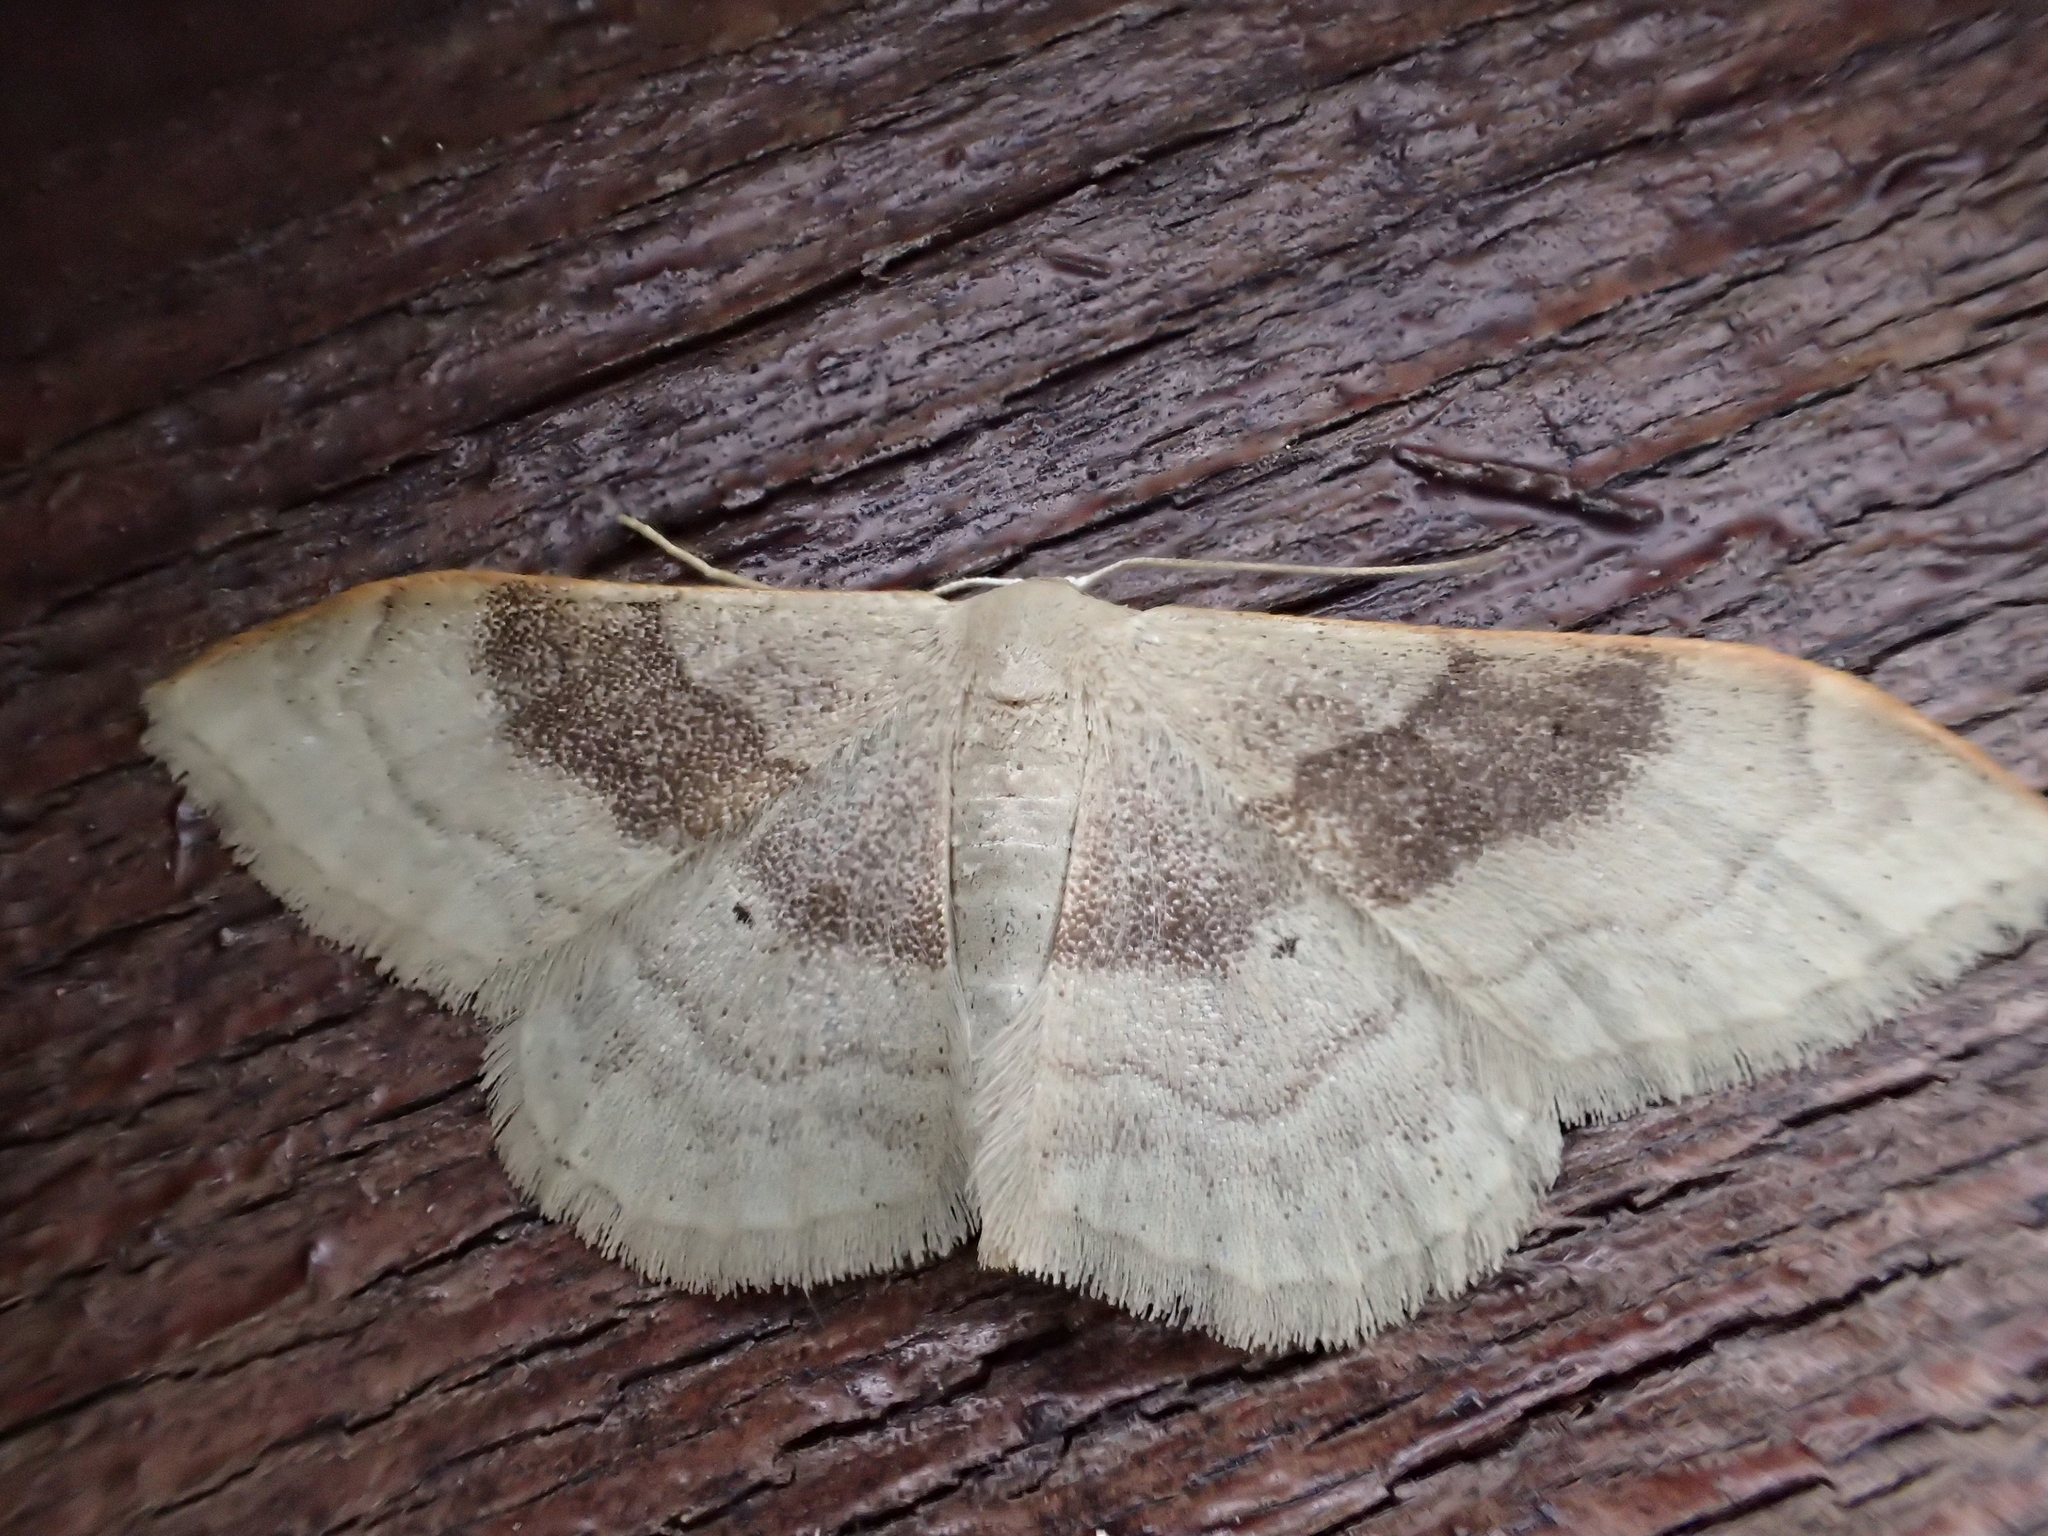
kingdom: Animalia
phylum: Arthropoda
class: Insecta
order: Lepidoptera
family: Geometridae
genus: Idaea
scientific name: Idaea degeneraria
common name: Portland ribbon wave
